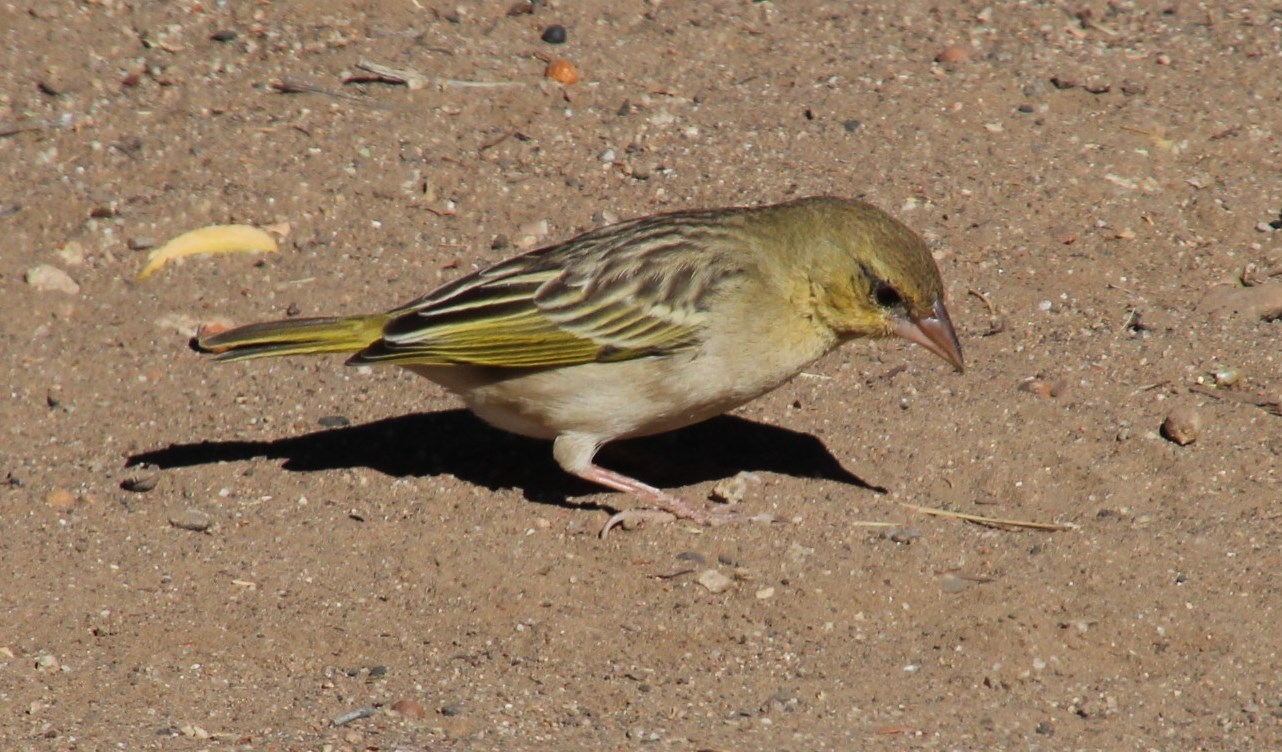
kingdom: Animalia
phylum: Chordata
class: Aves
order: Passeriformes
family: Ploceidae
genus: Ploceus
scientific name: Ploceus velatus
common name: Southern masked weaver
